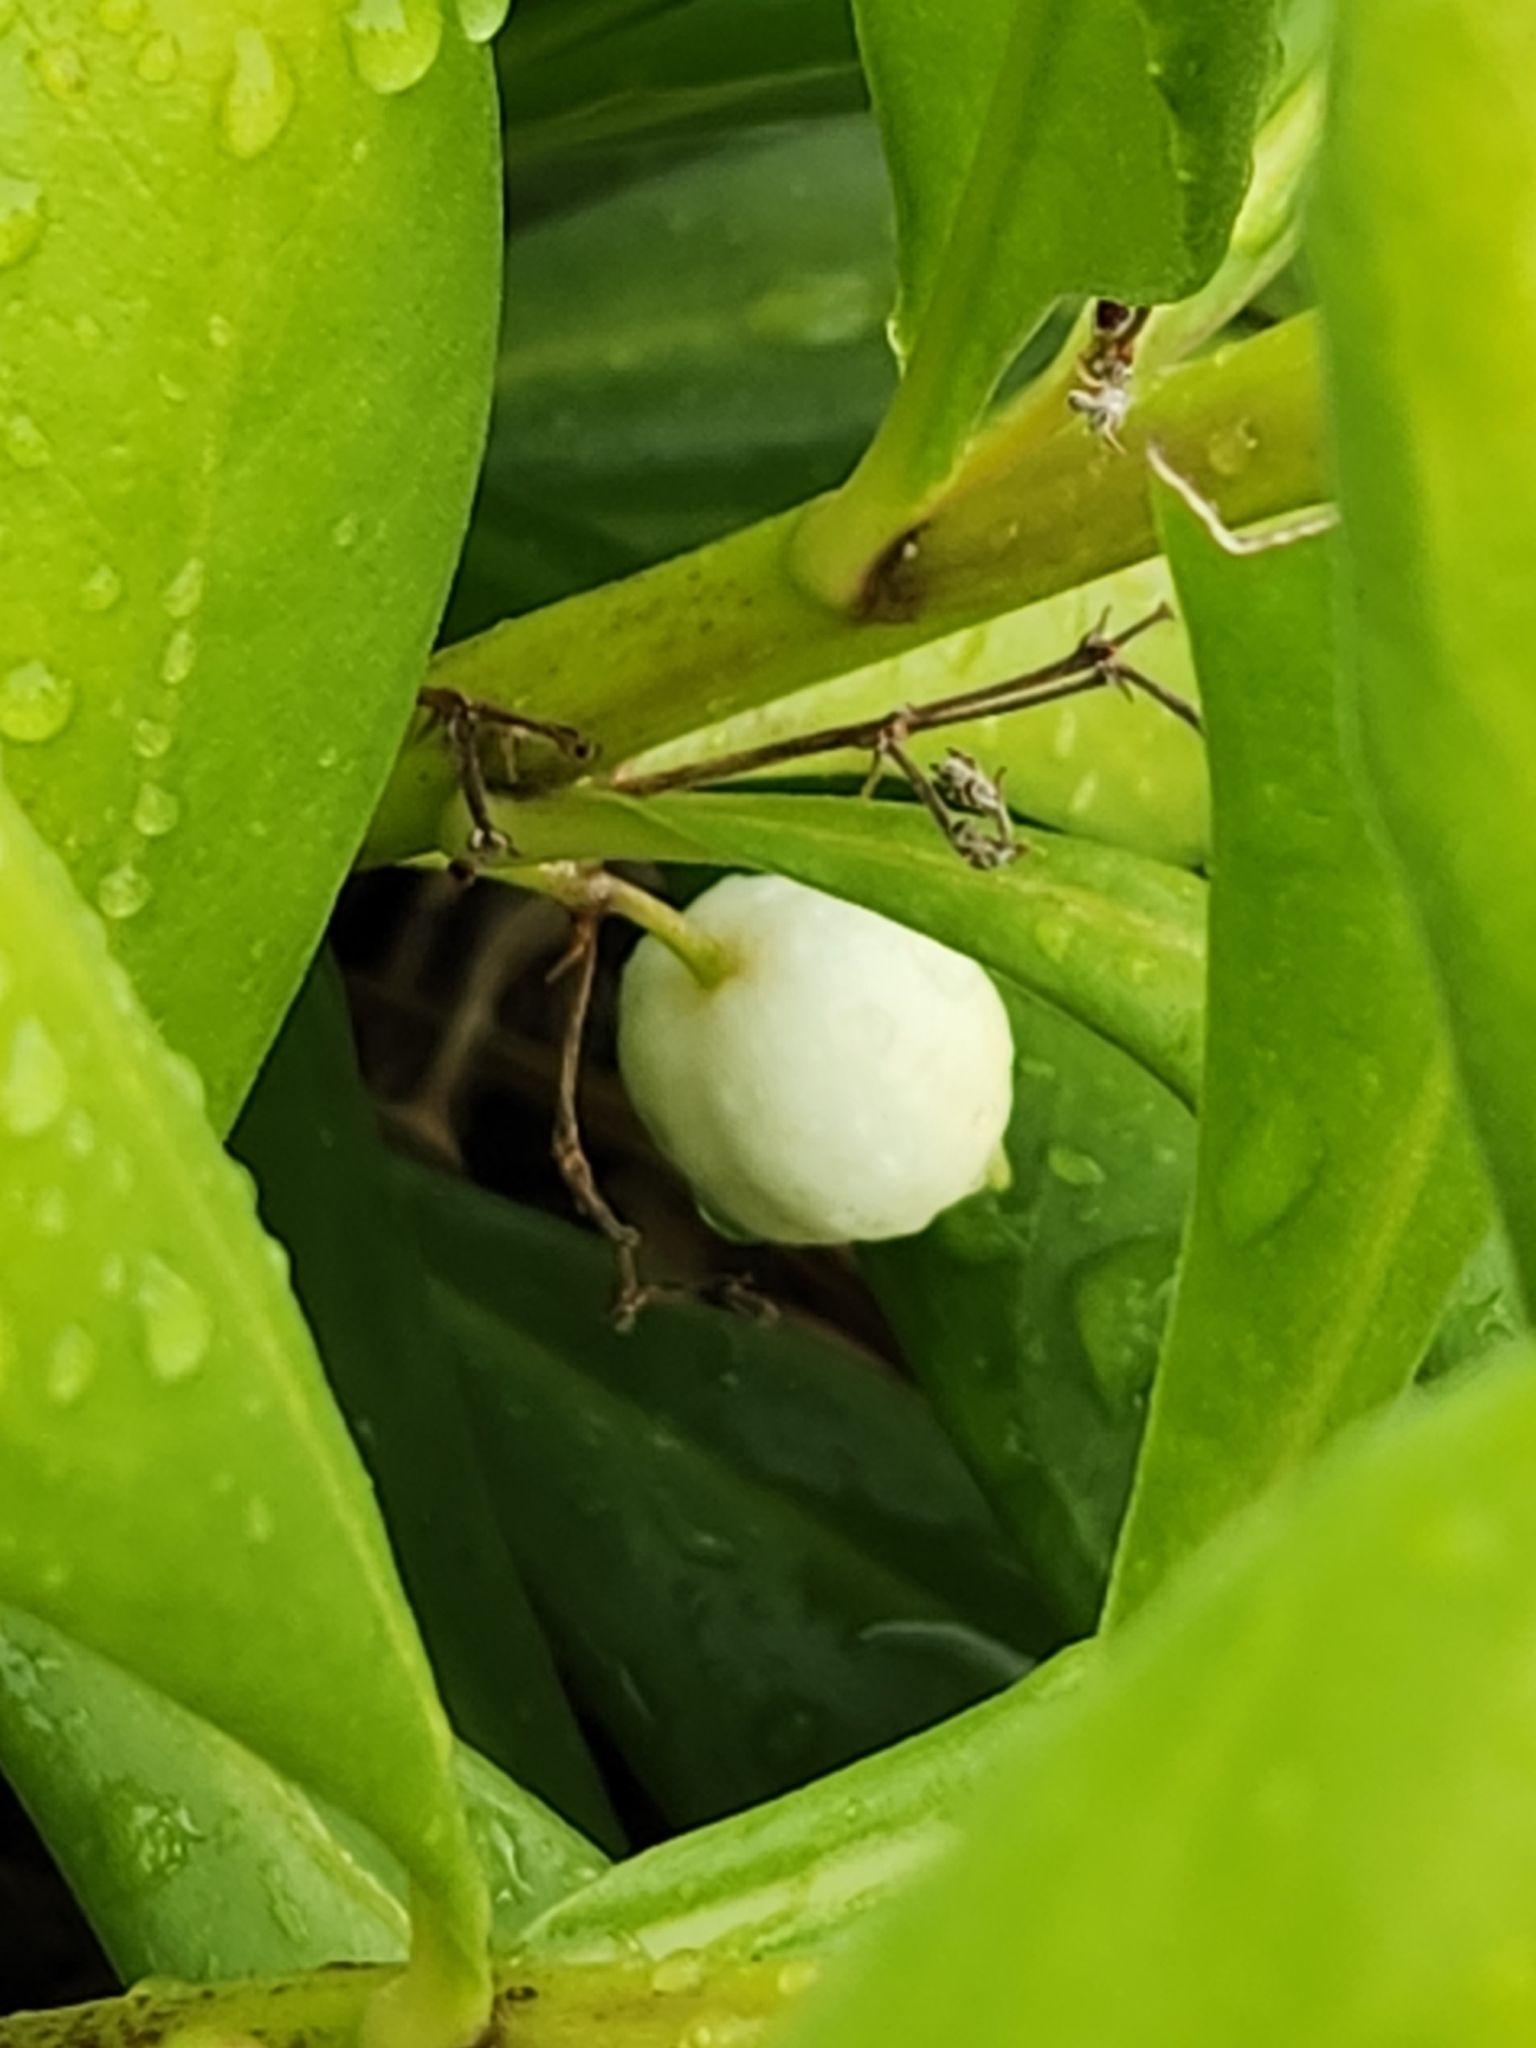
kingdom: Plantae
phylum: Tracheophyta
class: Magnoliopsida
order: Asterales
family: Goodeniaceae
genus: Scaevola
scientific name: Scaevola taccada
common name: Sea lettucetree
